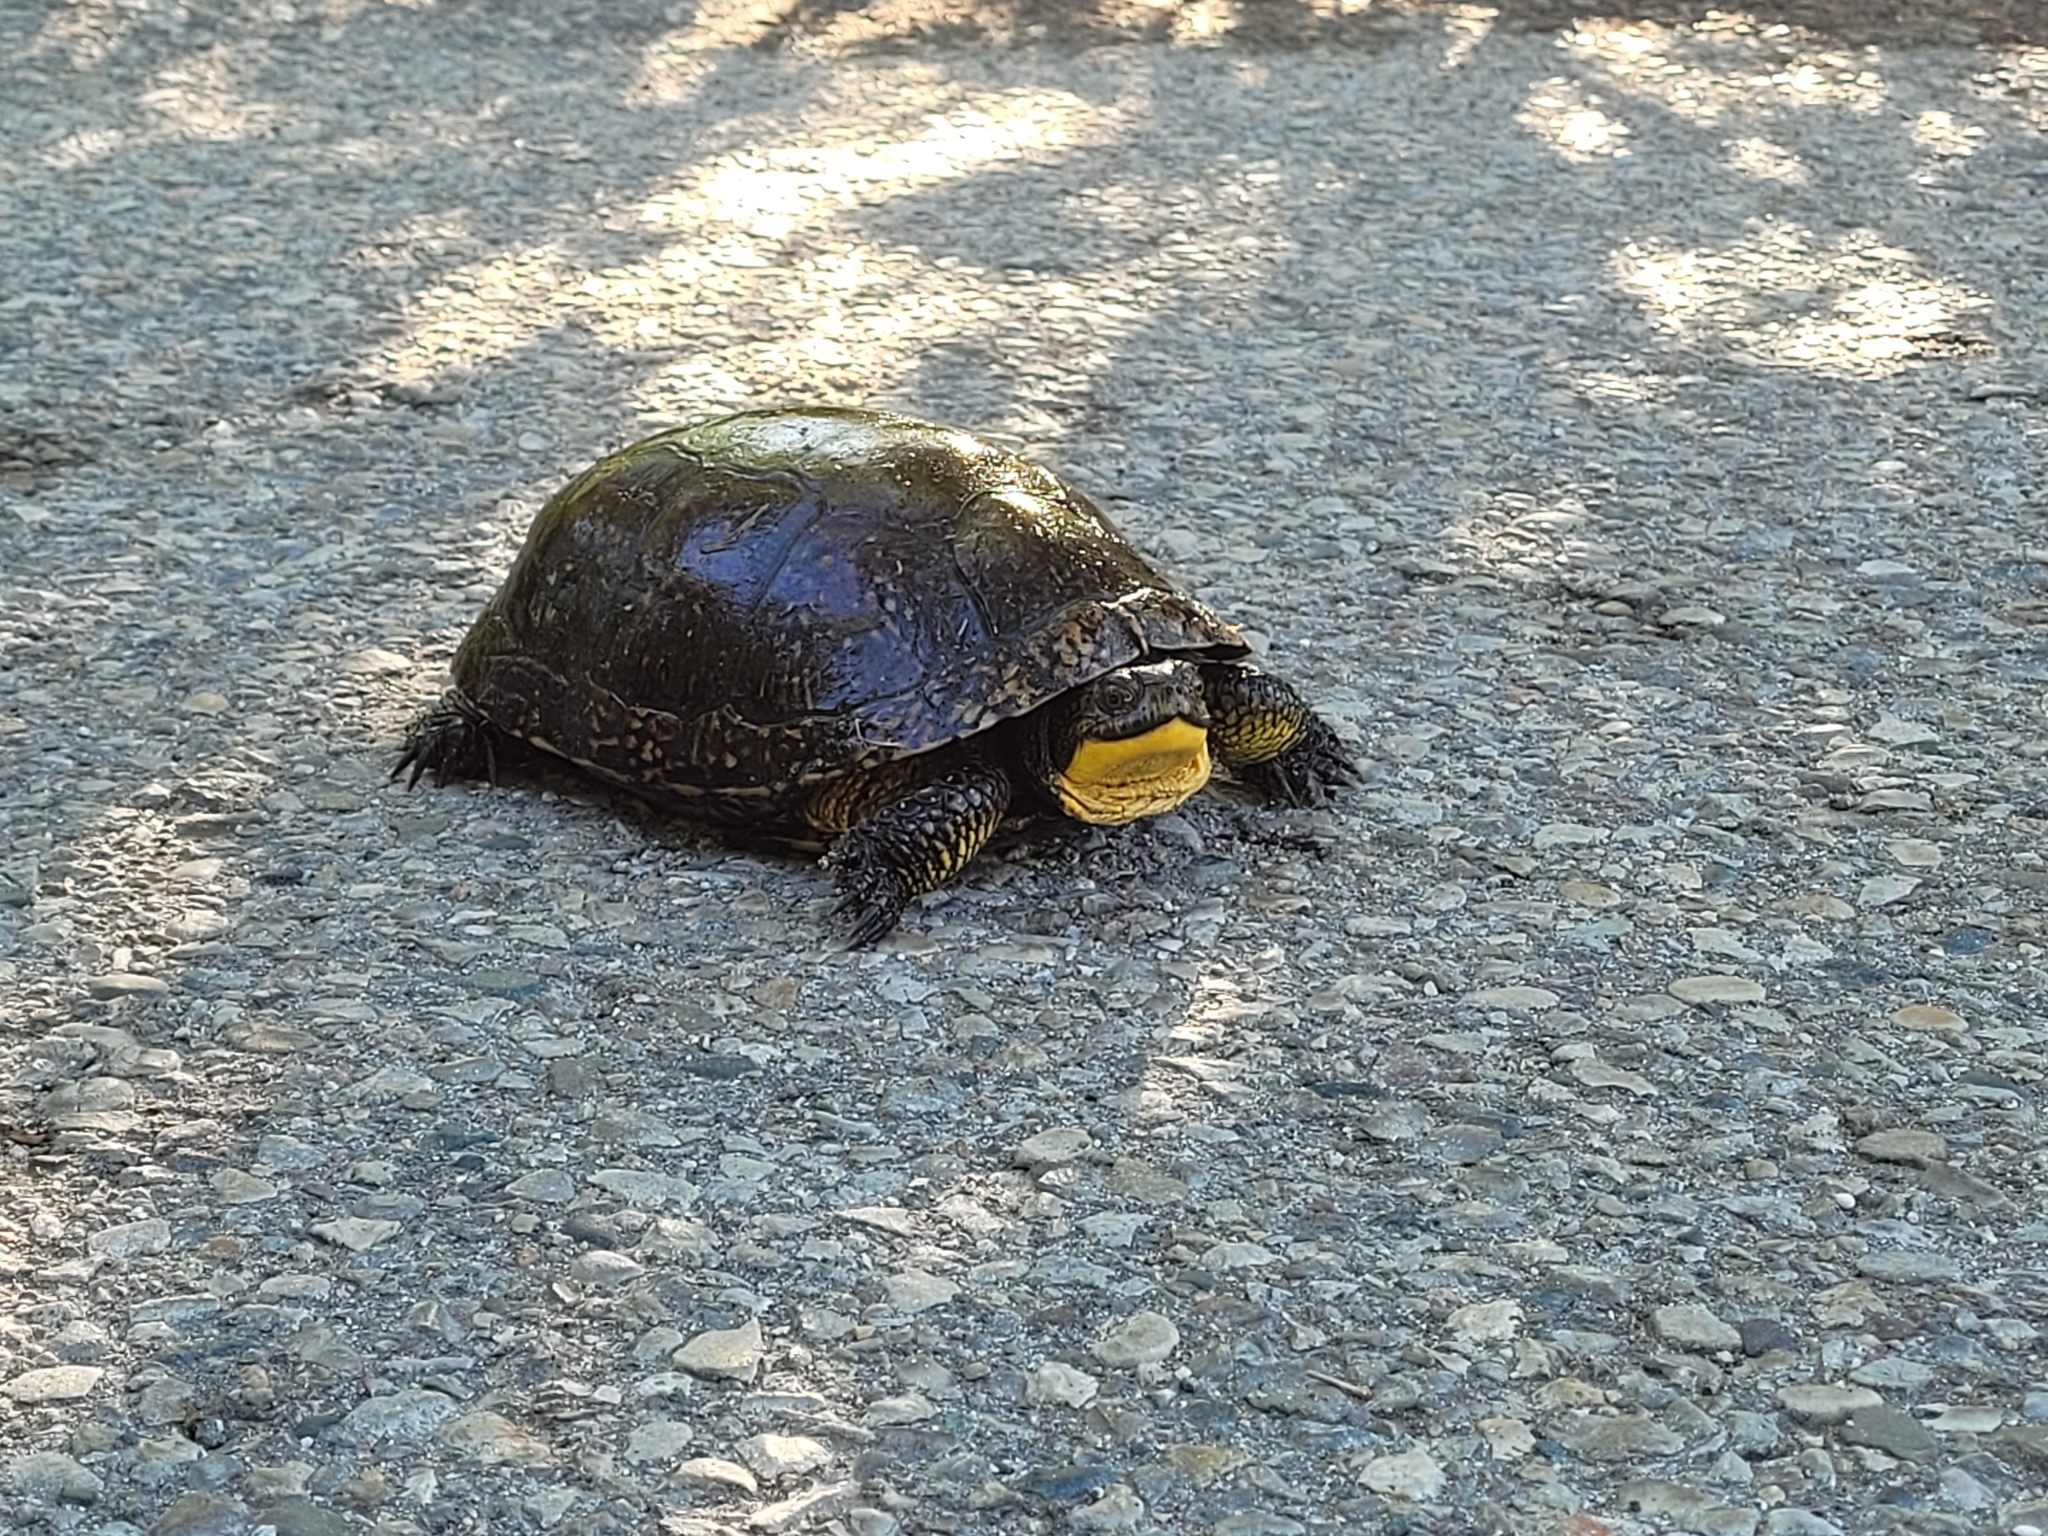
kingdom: Animalia
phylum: Chordata
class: Testudines
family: Emydidae
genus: Emys
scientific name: Emys blandingii
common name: Blanding's turtle
